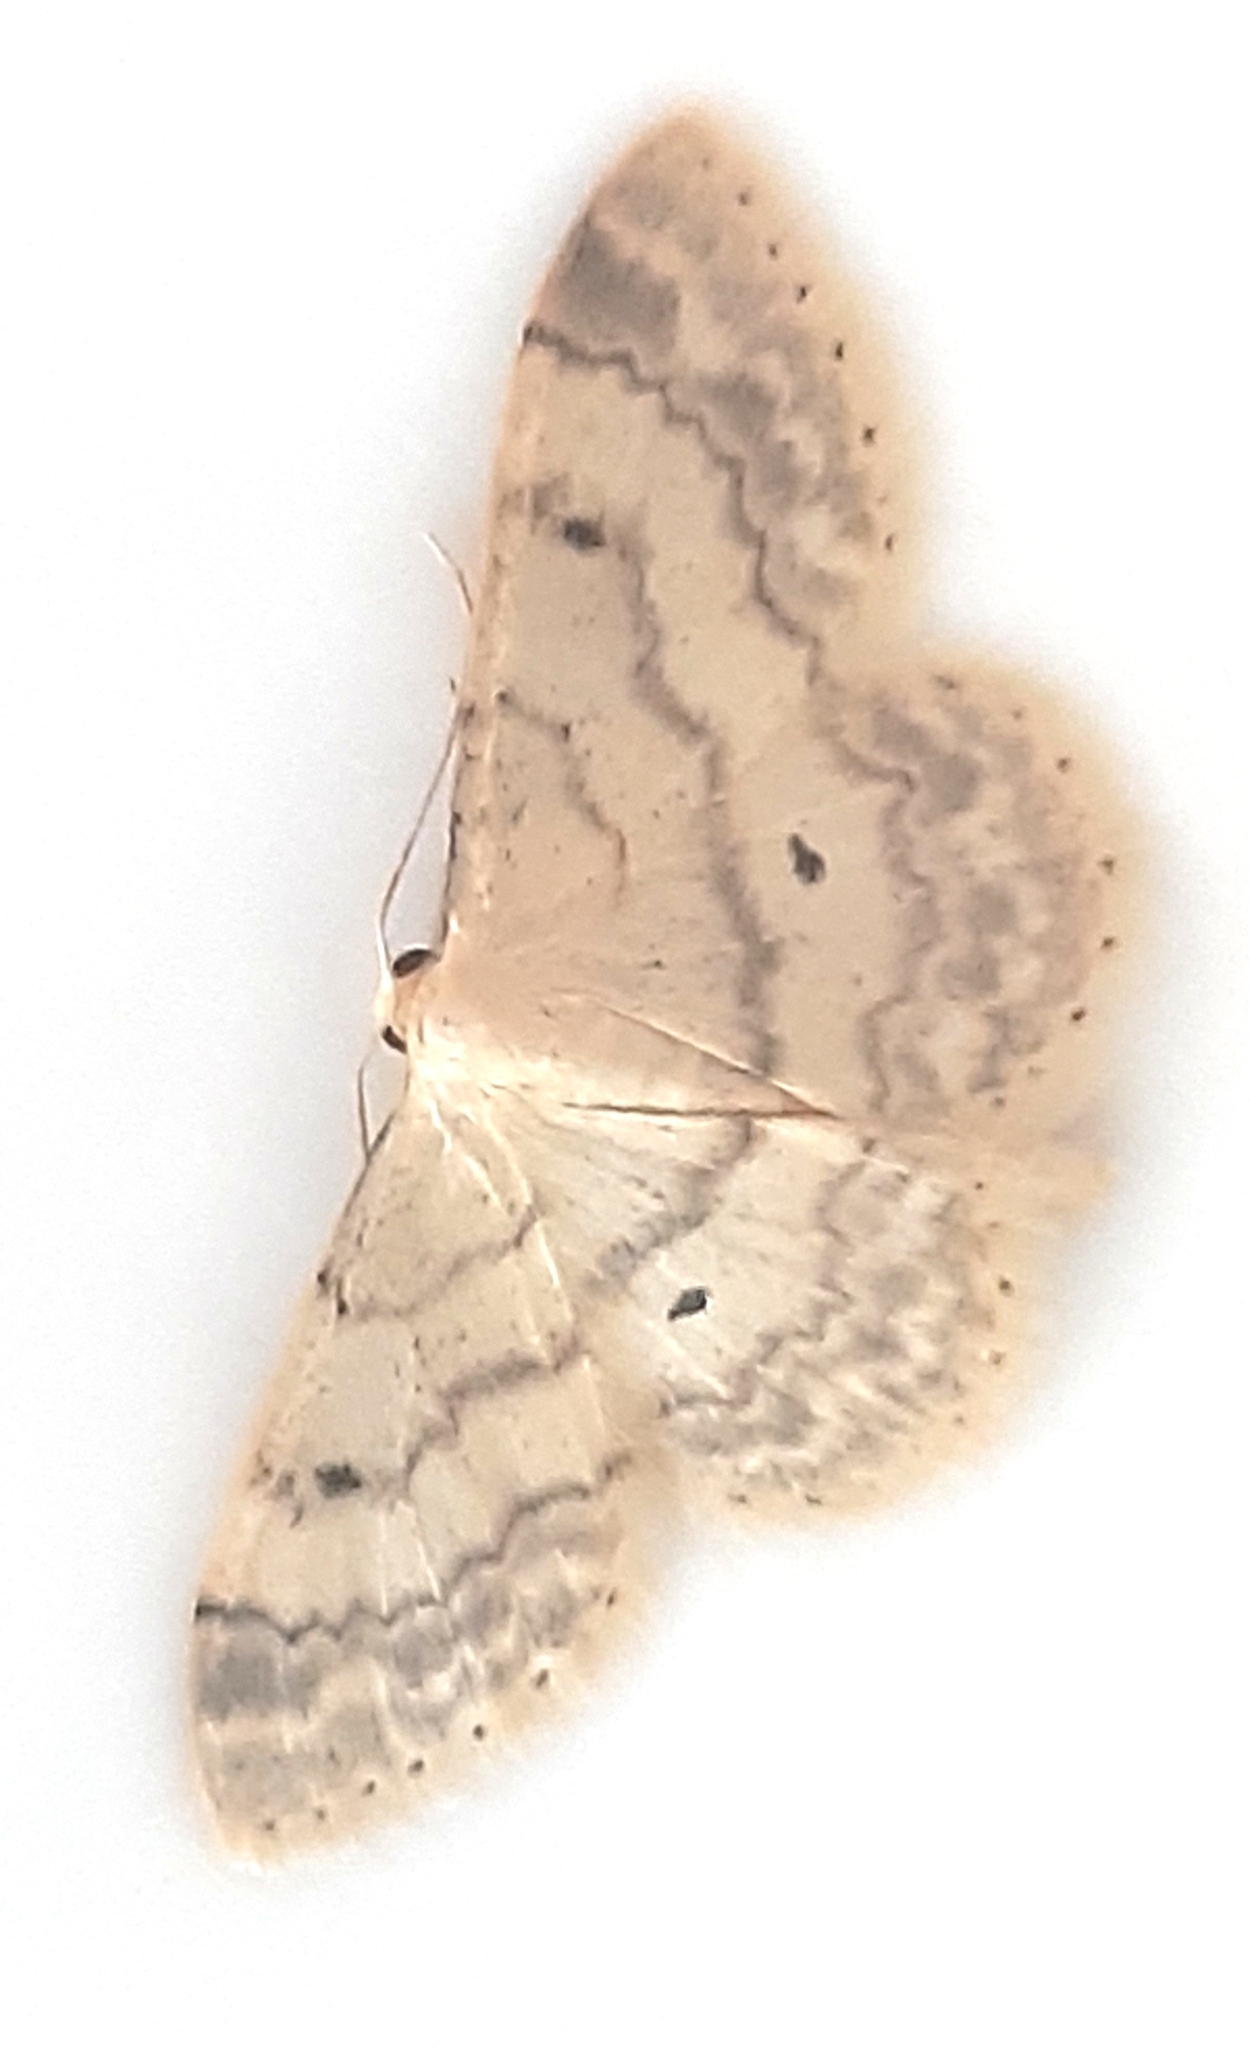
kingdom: Animalia
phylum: Arthropoda
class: Insecta
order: Lepidoptera
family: Geometridae
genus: Idaea
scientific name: Idaea biselata
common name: Small fan-footed wave
